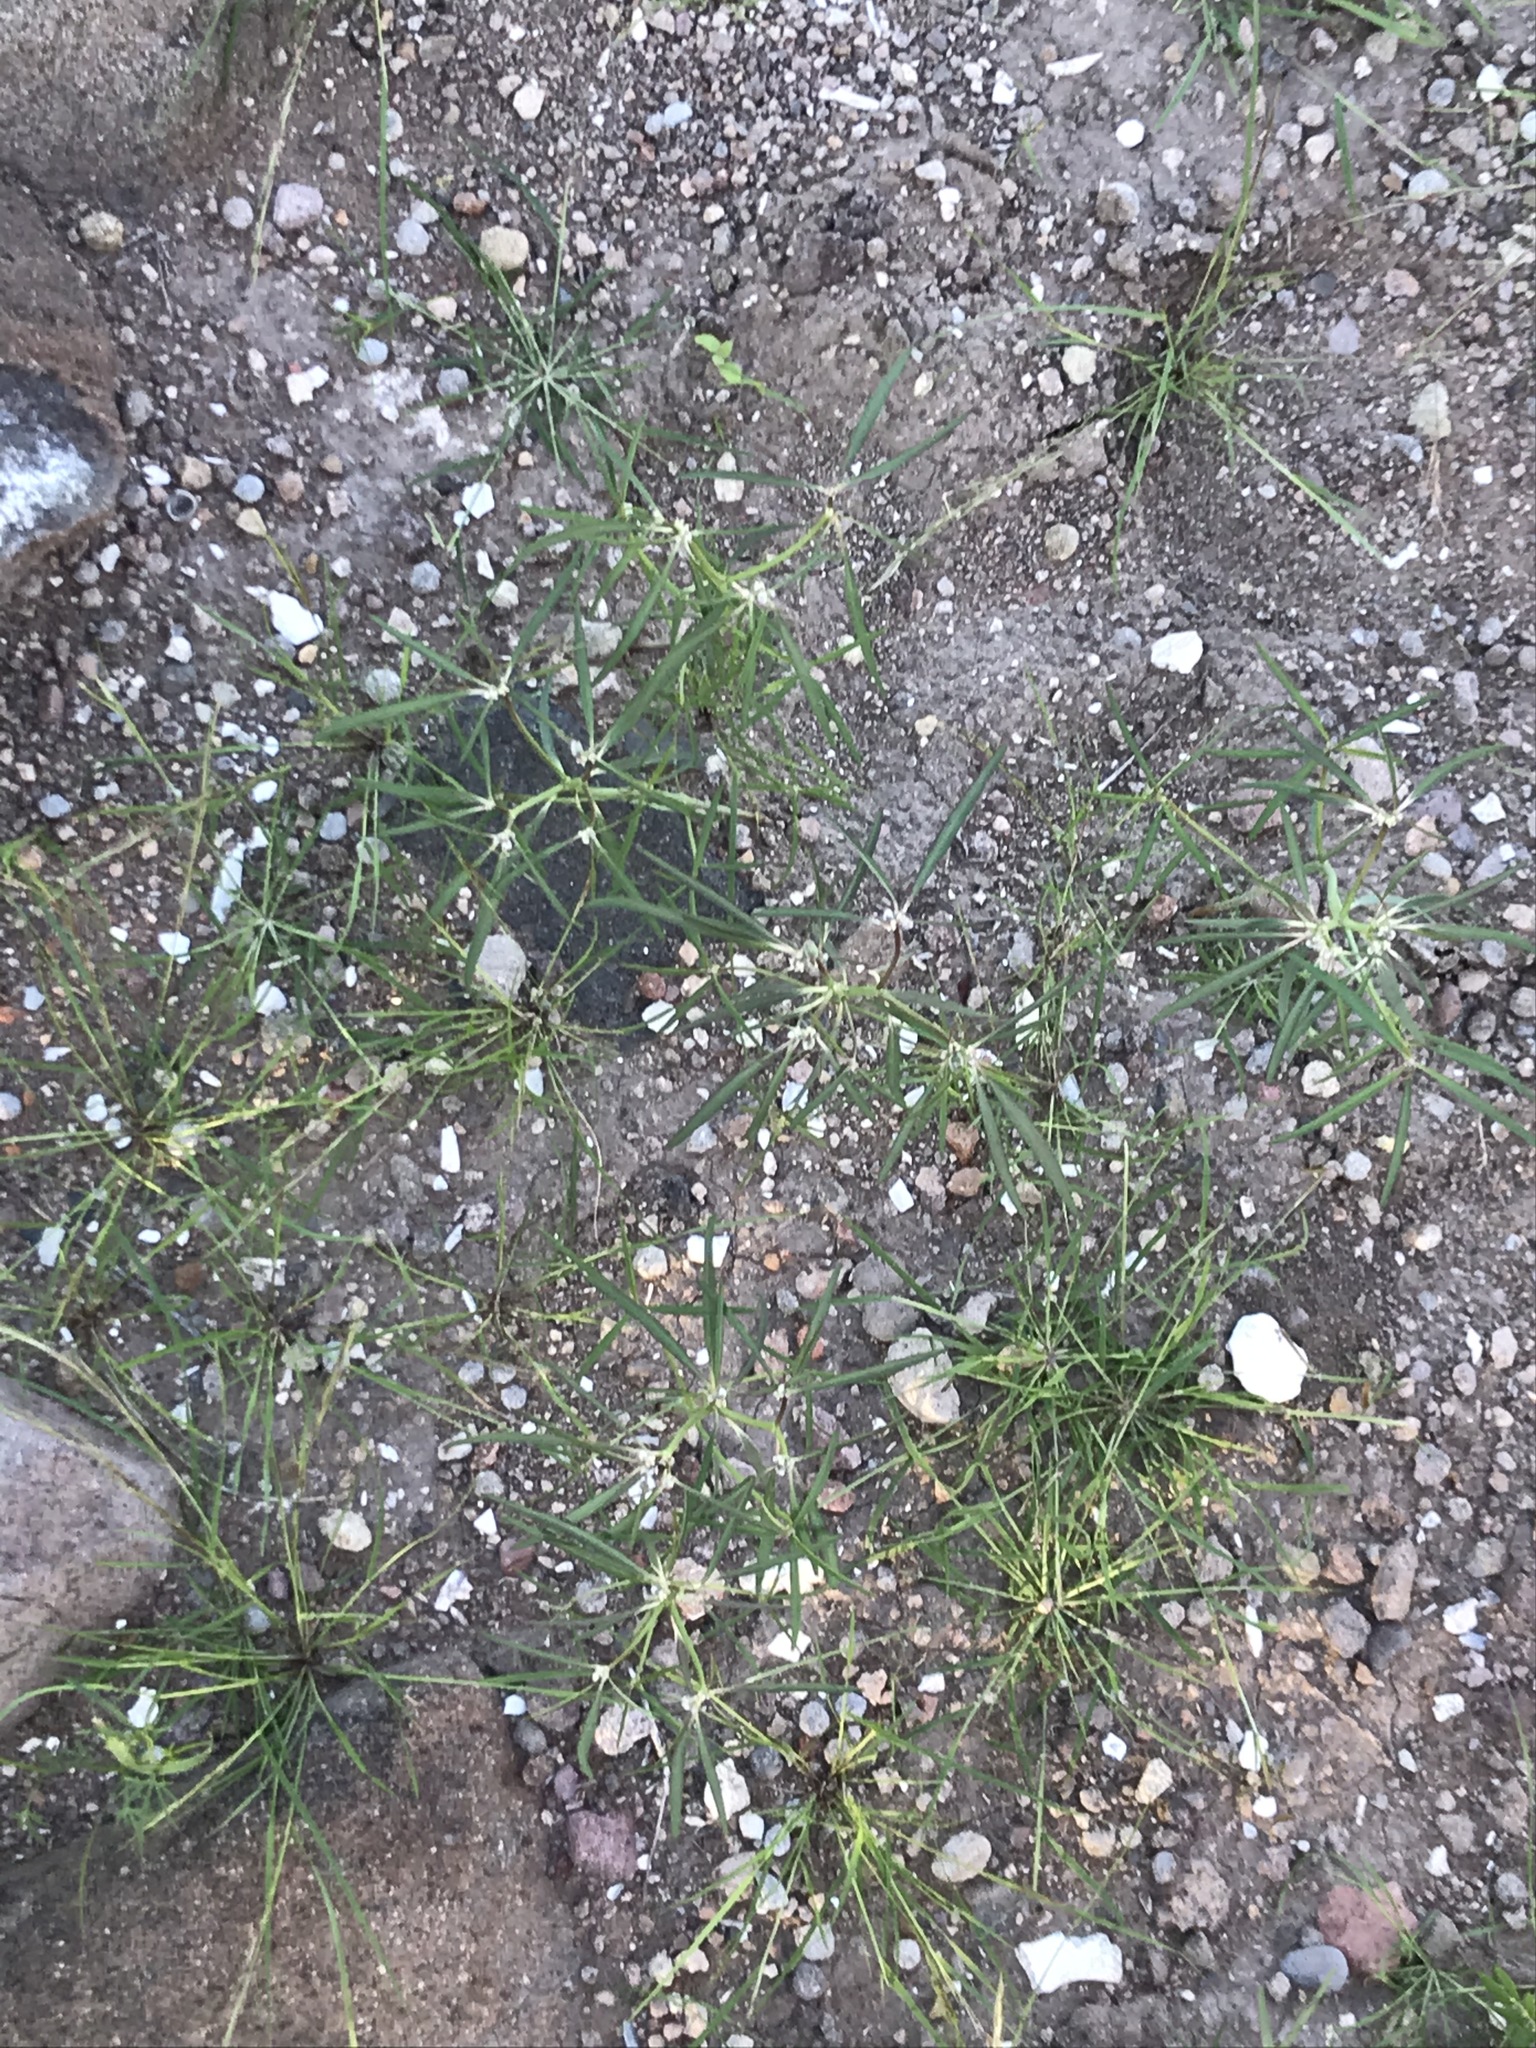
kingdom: Plantae
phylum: Tracheophyta
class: Magnoliopsida
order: Malpighiales
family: Euphorbiaceae
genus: Euphorbia
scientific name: Euphorbia eriantha
